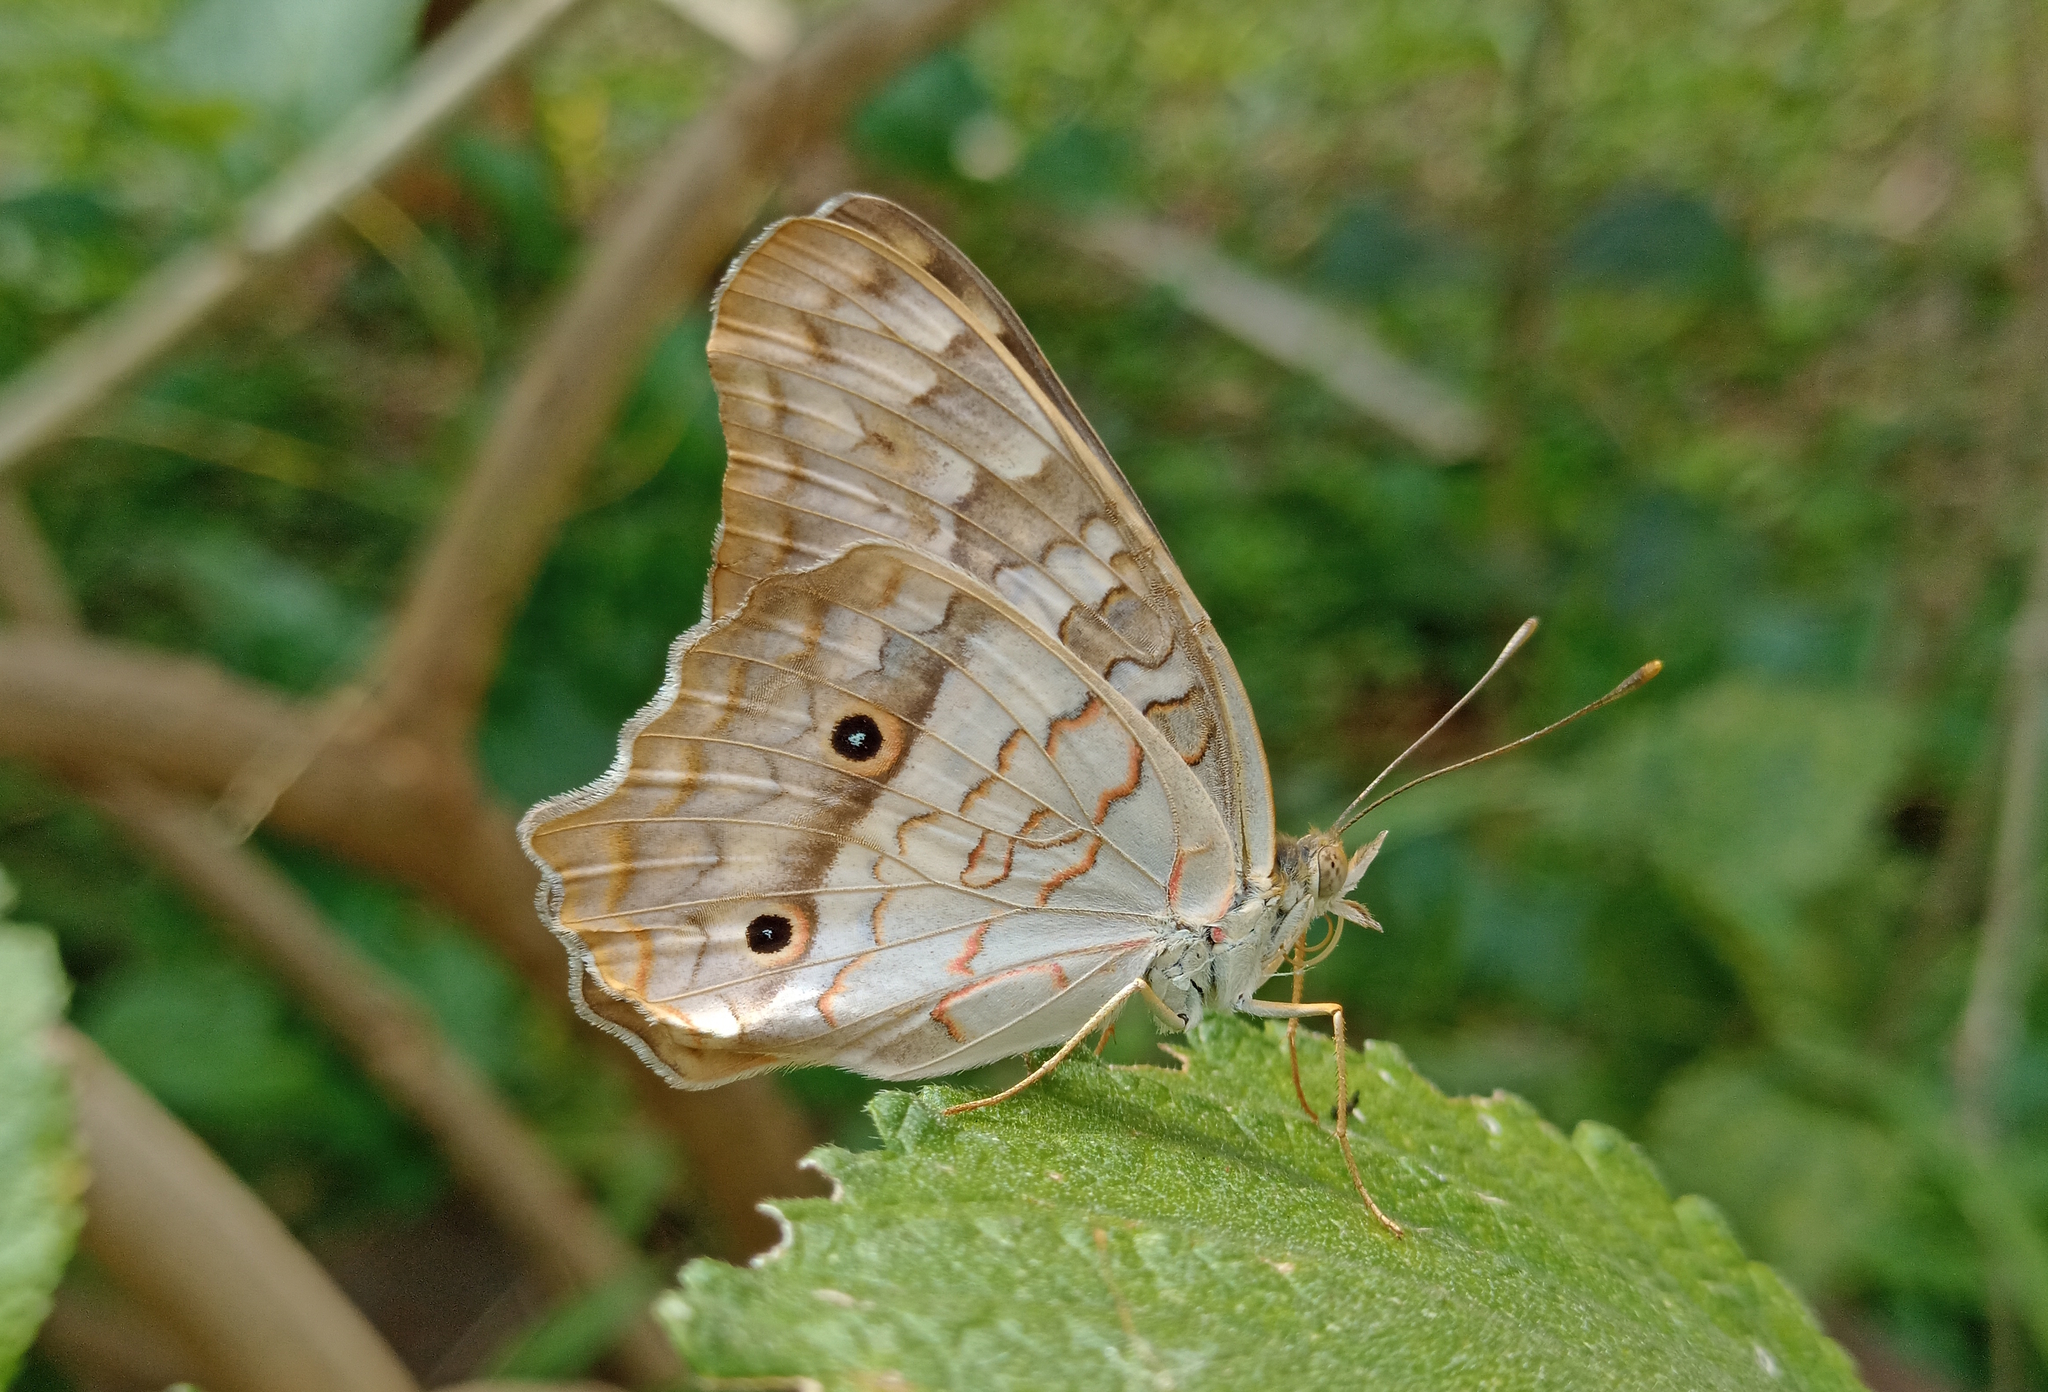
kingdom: Animalia
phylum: Arthropoda
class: Insecta
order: Lepidoptera
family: Nymphalidae
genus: Anartia
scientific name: Anartia jatrophae
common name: White peacock
